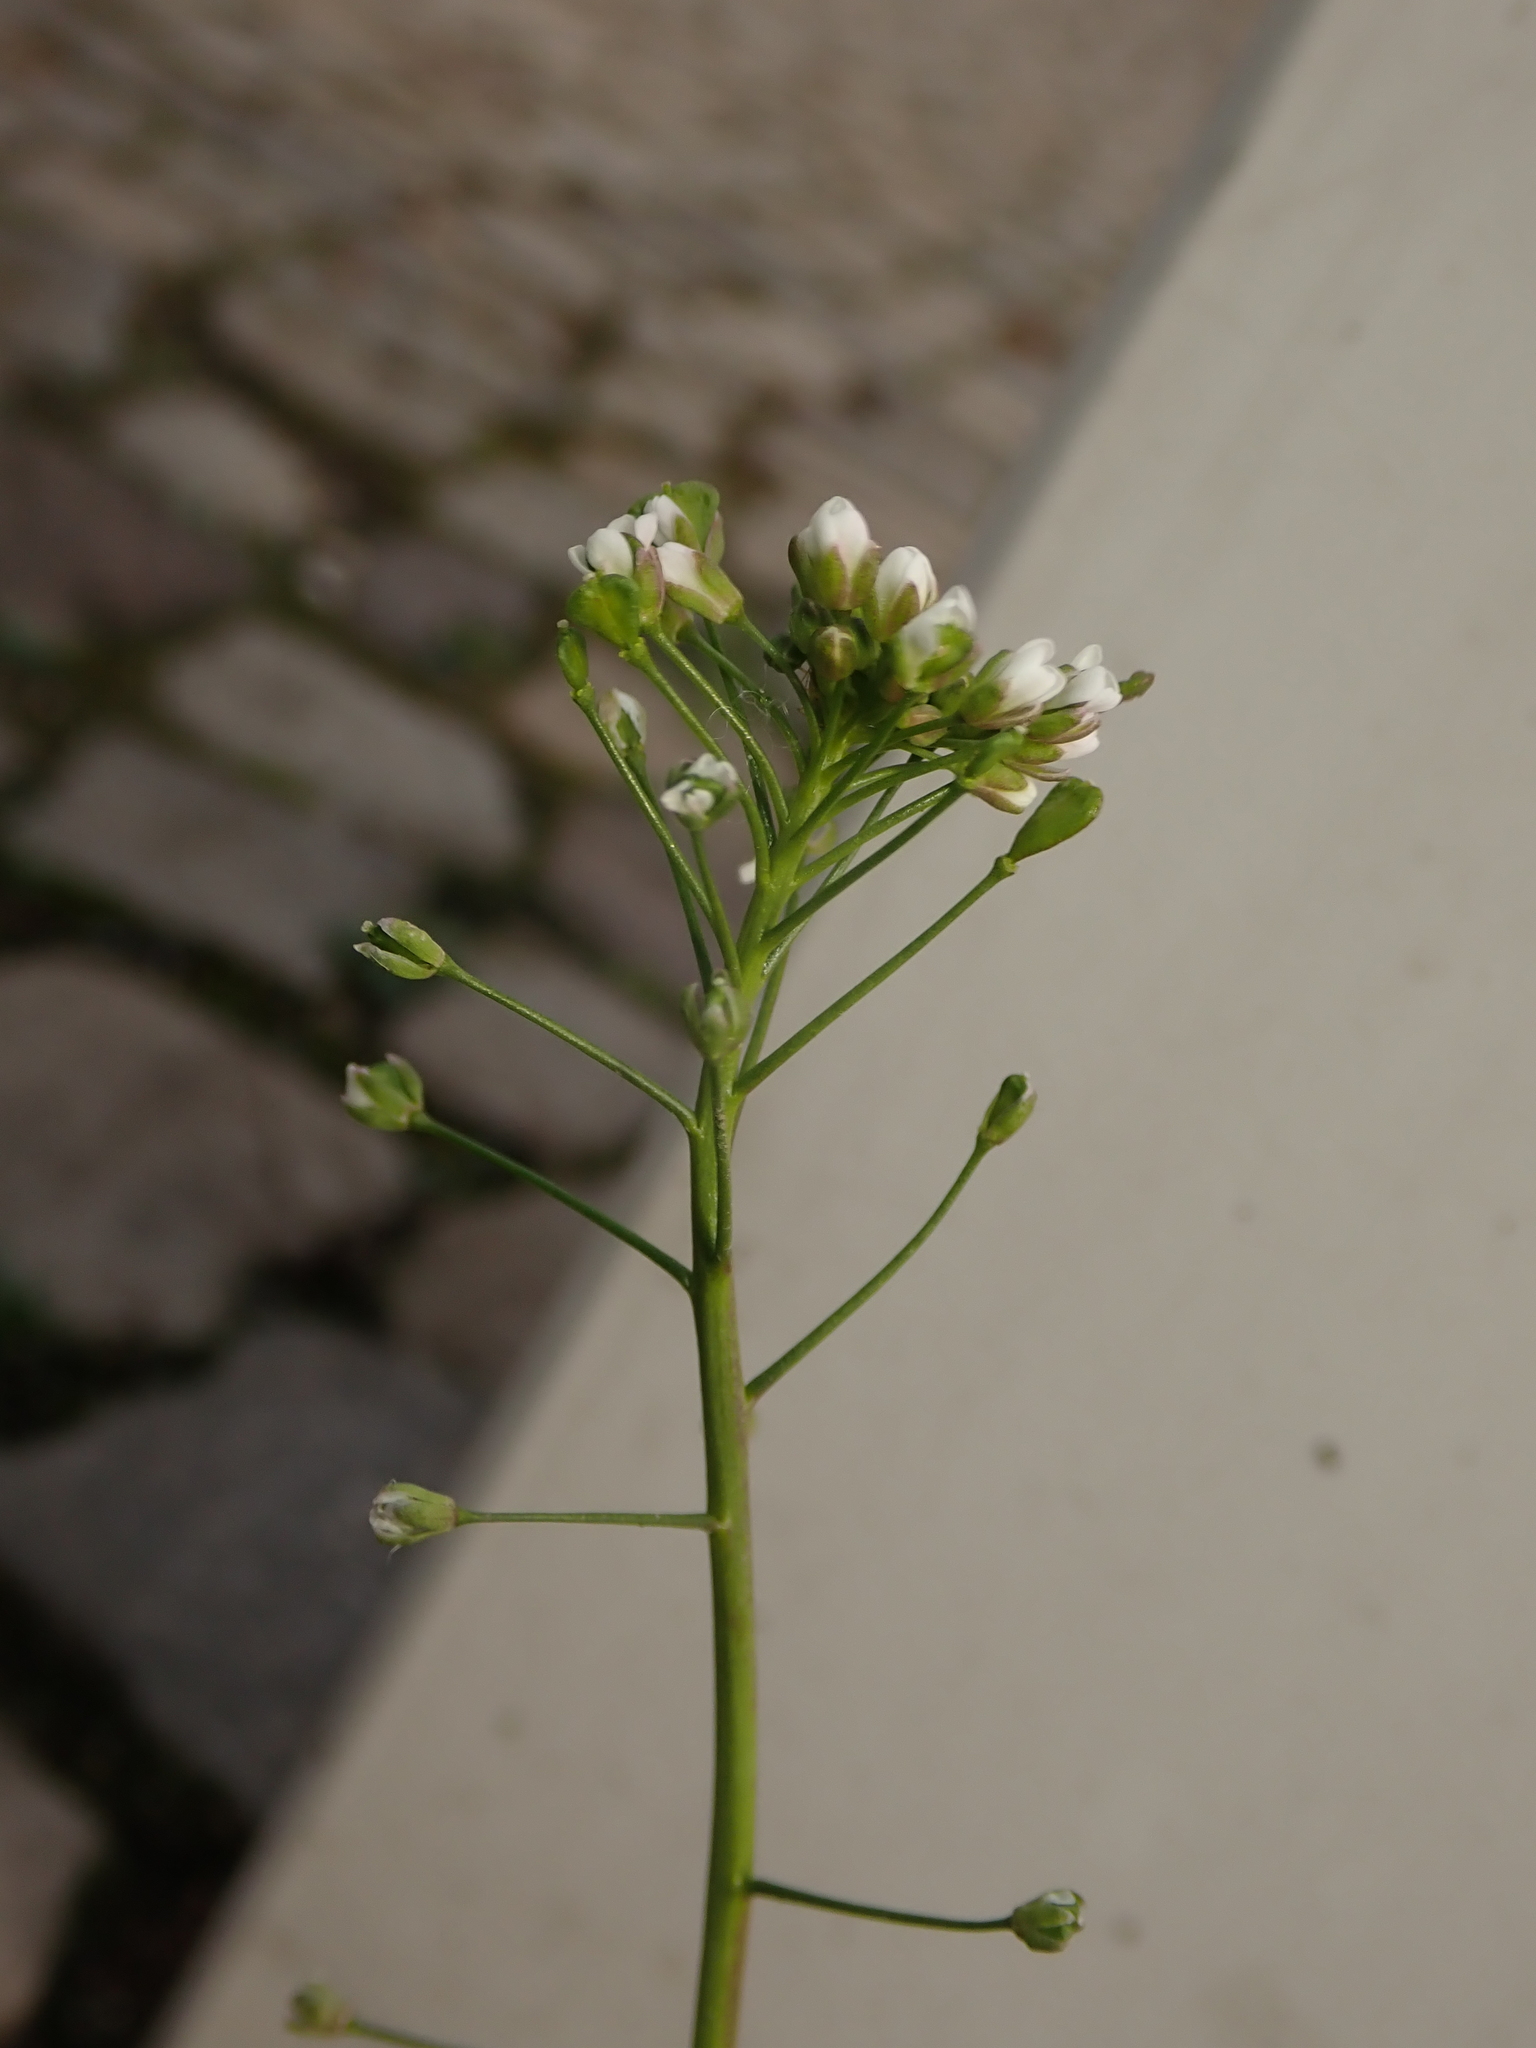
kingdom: Plantae
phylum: Tracheophyta
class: Magnoliopsida
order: Brassicales
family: Brassicaceae
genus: Capsella
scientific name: Capsella bursa-pastoris
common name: Shepherd's purse
